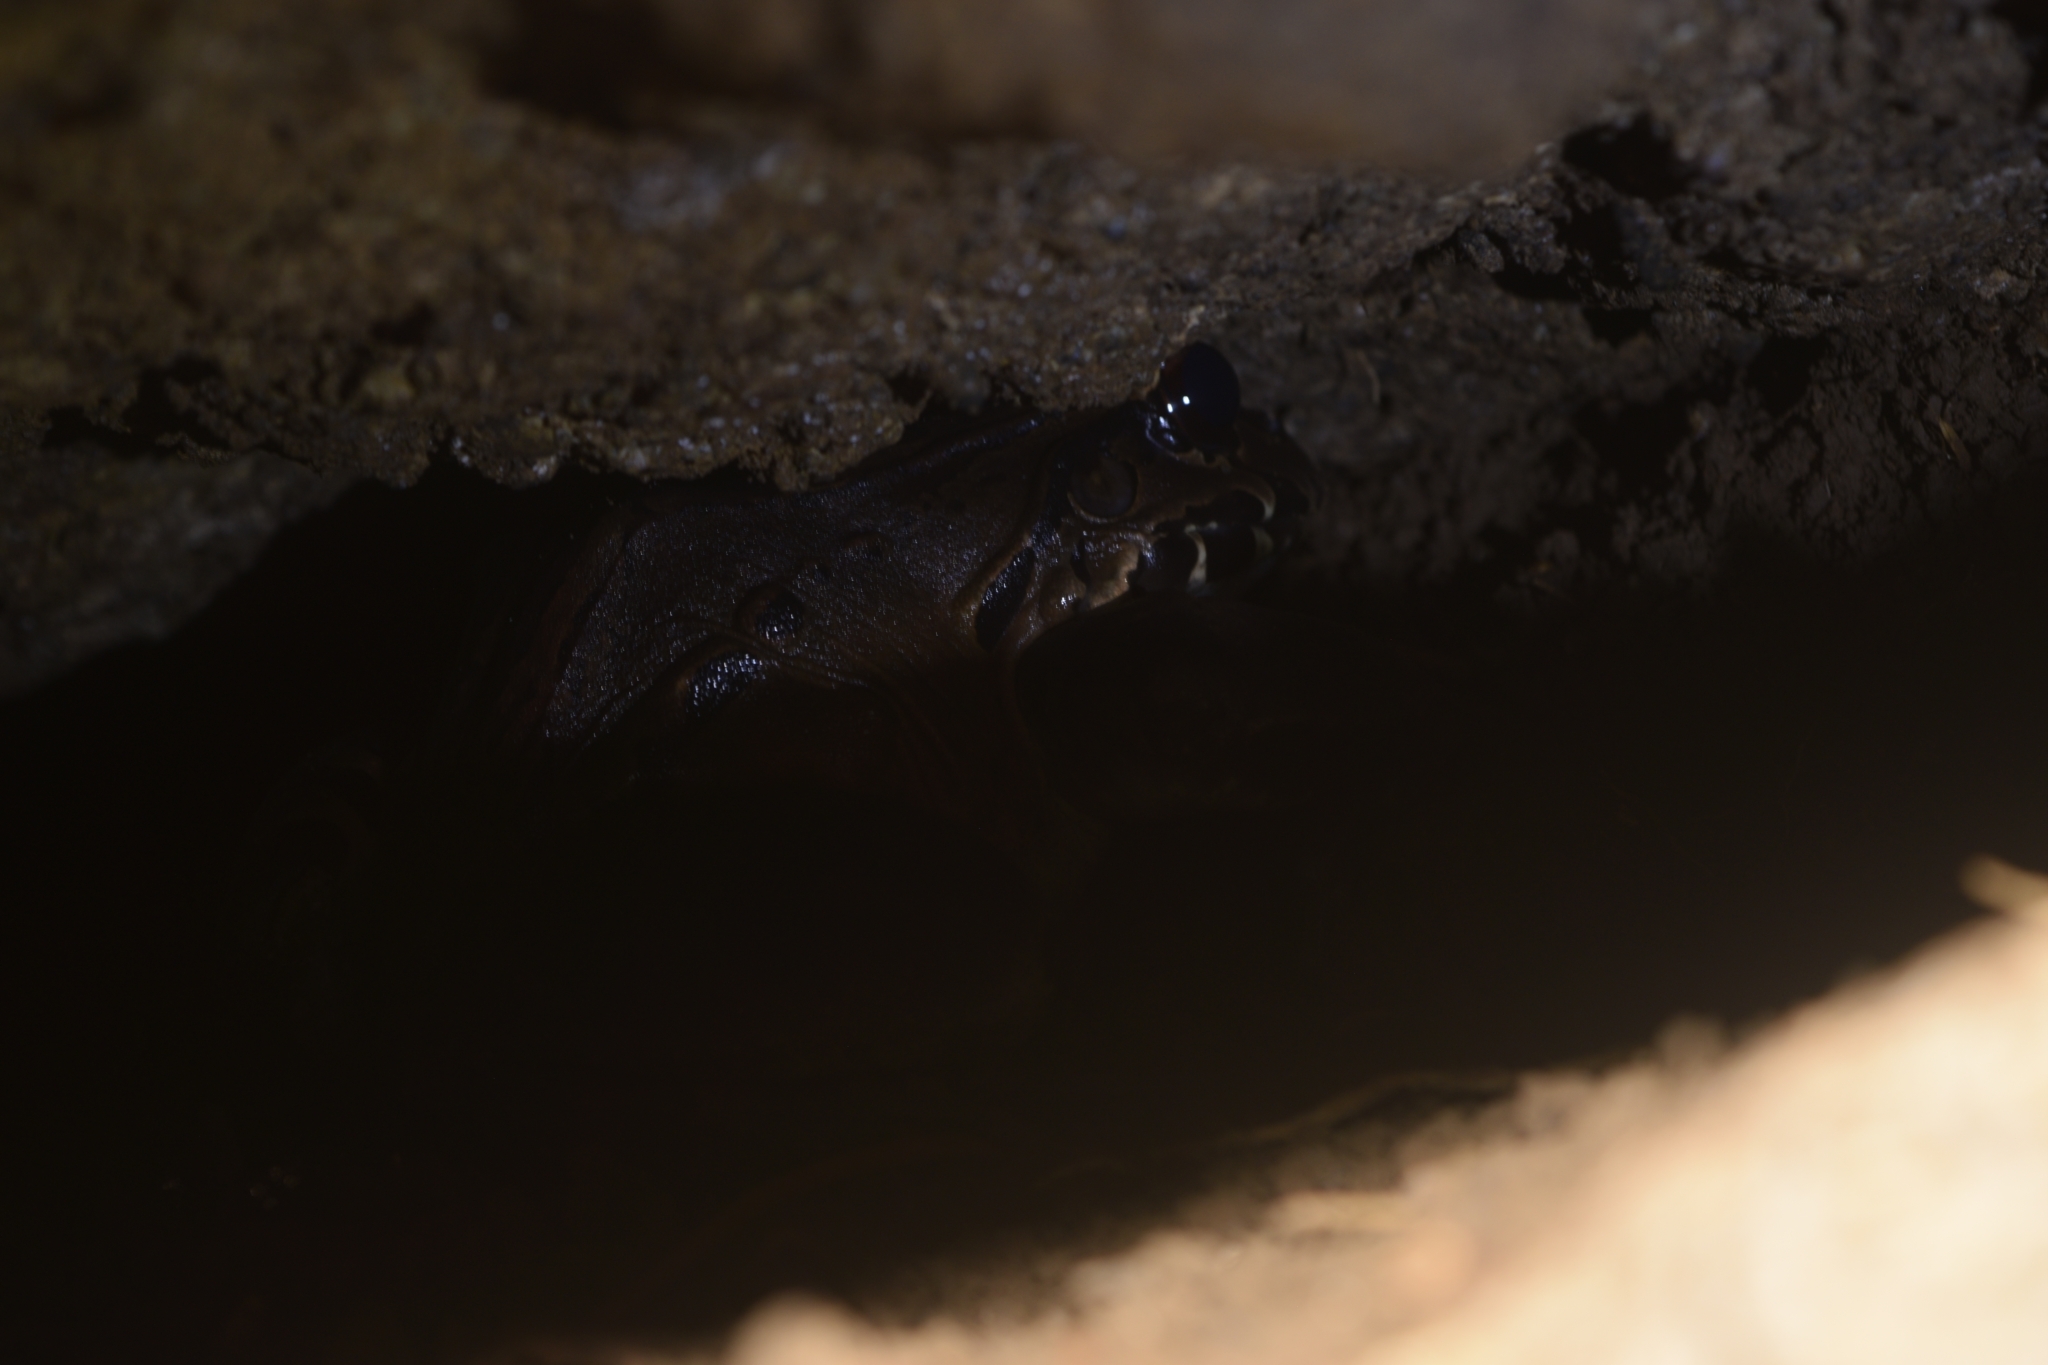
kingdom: Animalia
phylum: Chordata
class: Amphibia
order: Anura
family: Leptodactylidae
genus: Leptodactylus
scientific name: Leptodactylus savagei
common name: Savage's thin-toed frog
